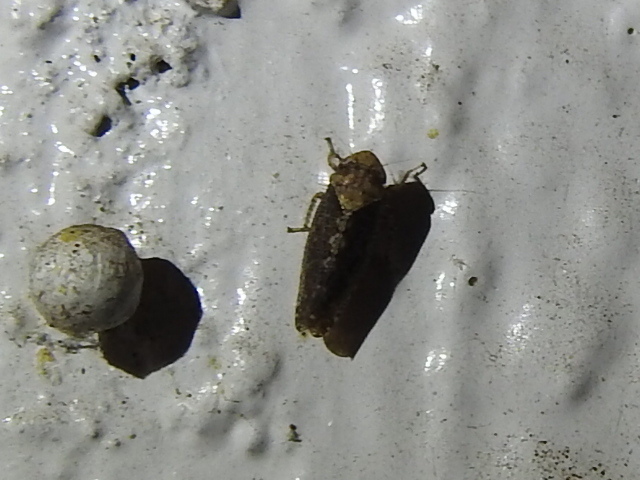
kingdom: Animalia
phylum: Arthropoda
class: Insecta
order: Hemiptera
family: Cicadellidae
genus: Excultanus
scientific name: Excultanus excultus
